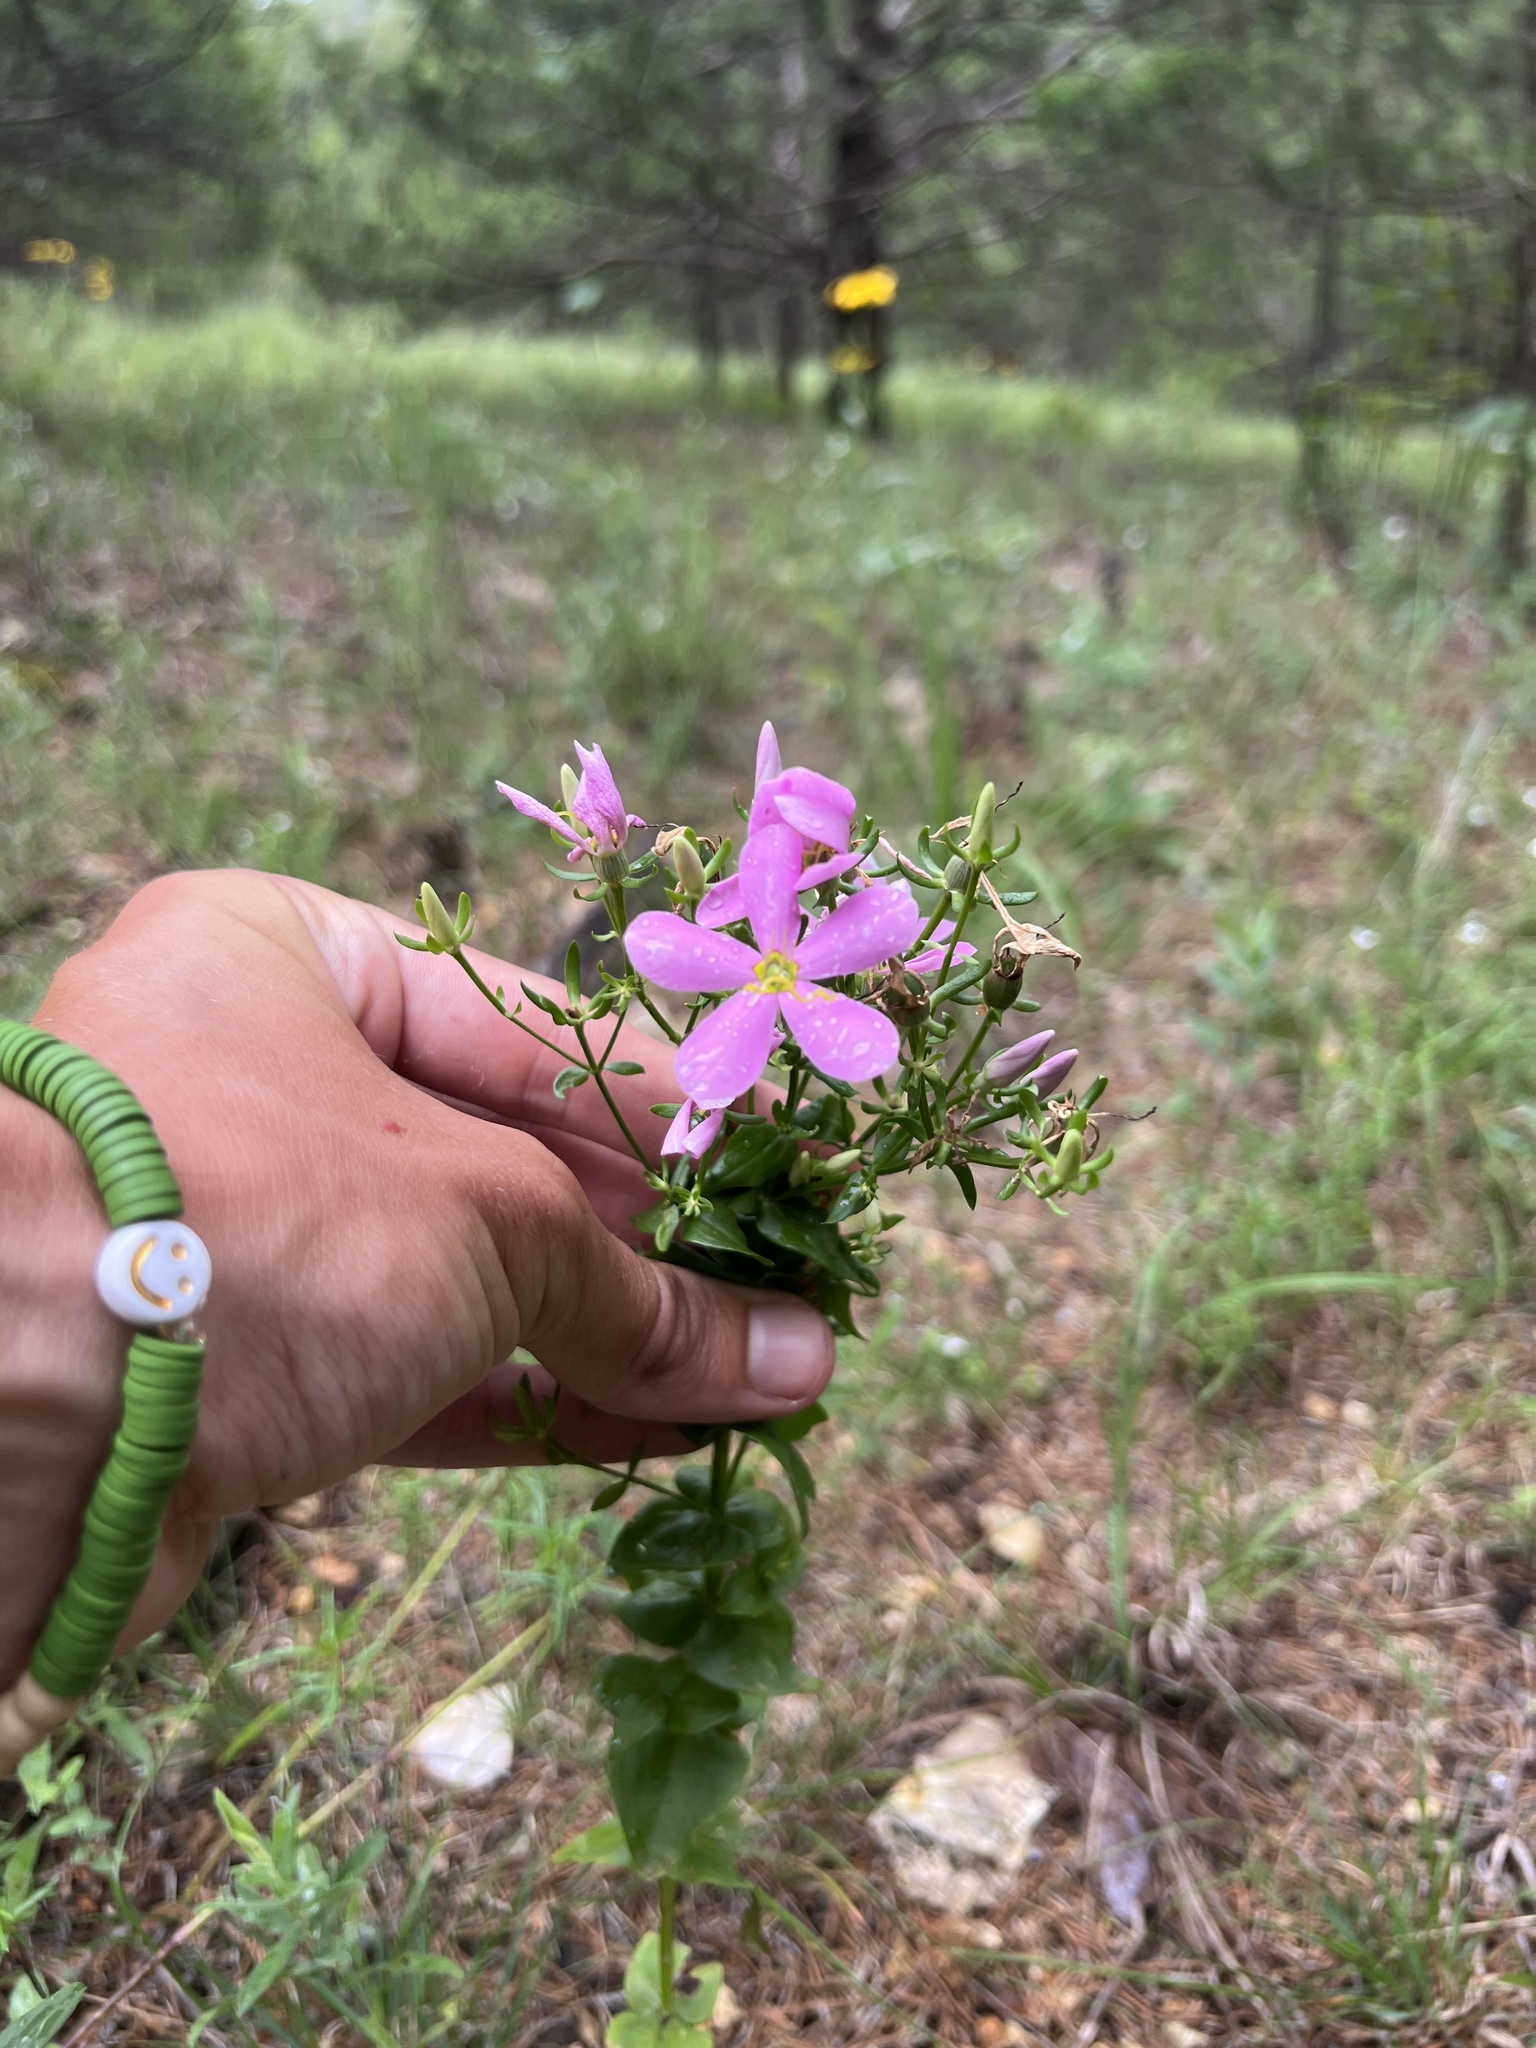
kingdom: Plantae
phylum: Tracheophyta
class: Magnoliopsida
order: Gentianales
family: Gentianaceae
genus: Sabatia
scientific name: Sabatia angularis
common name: Rose-pink
